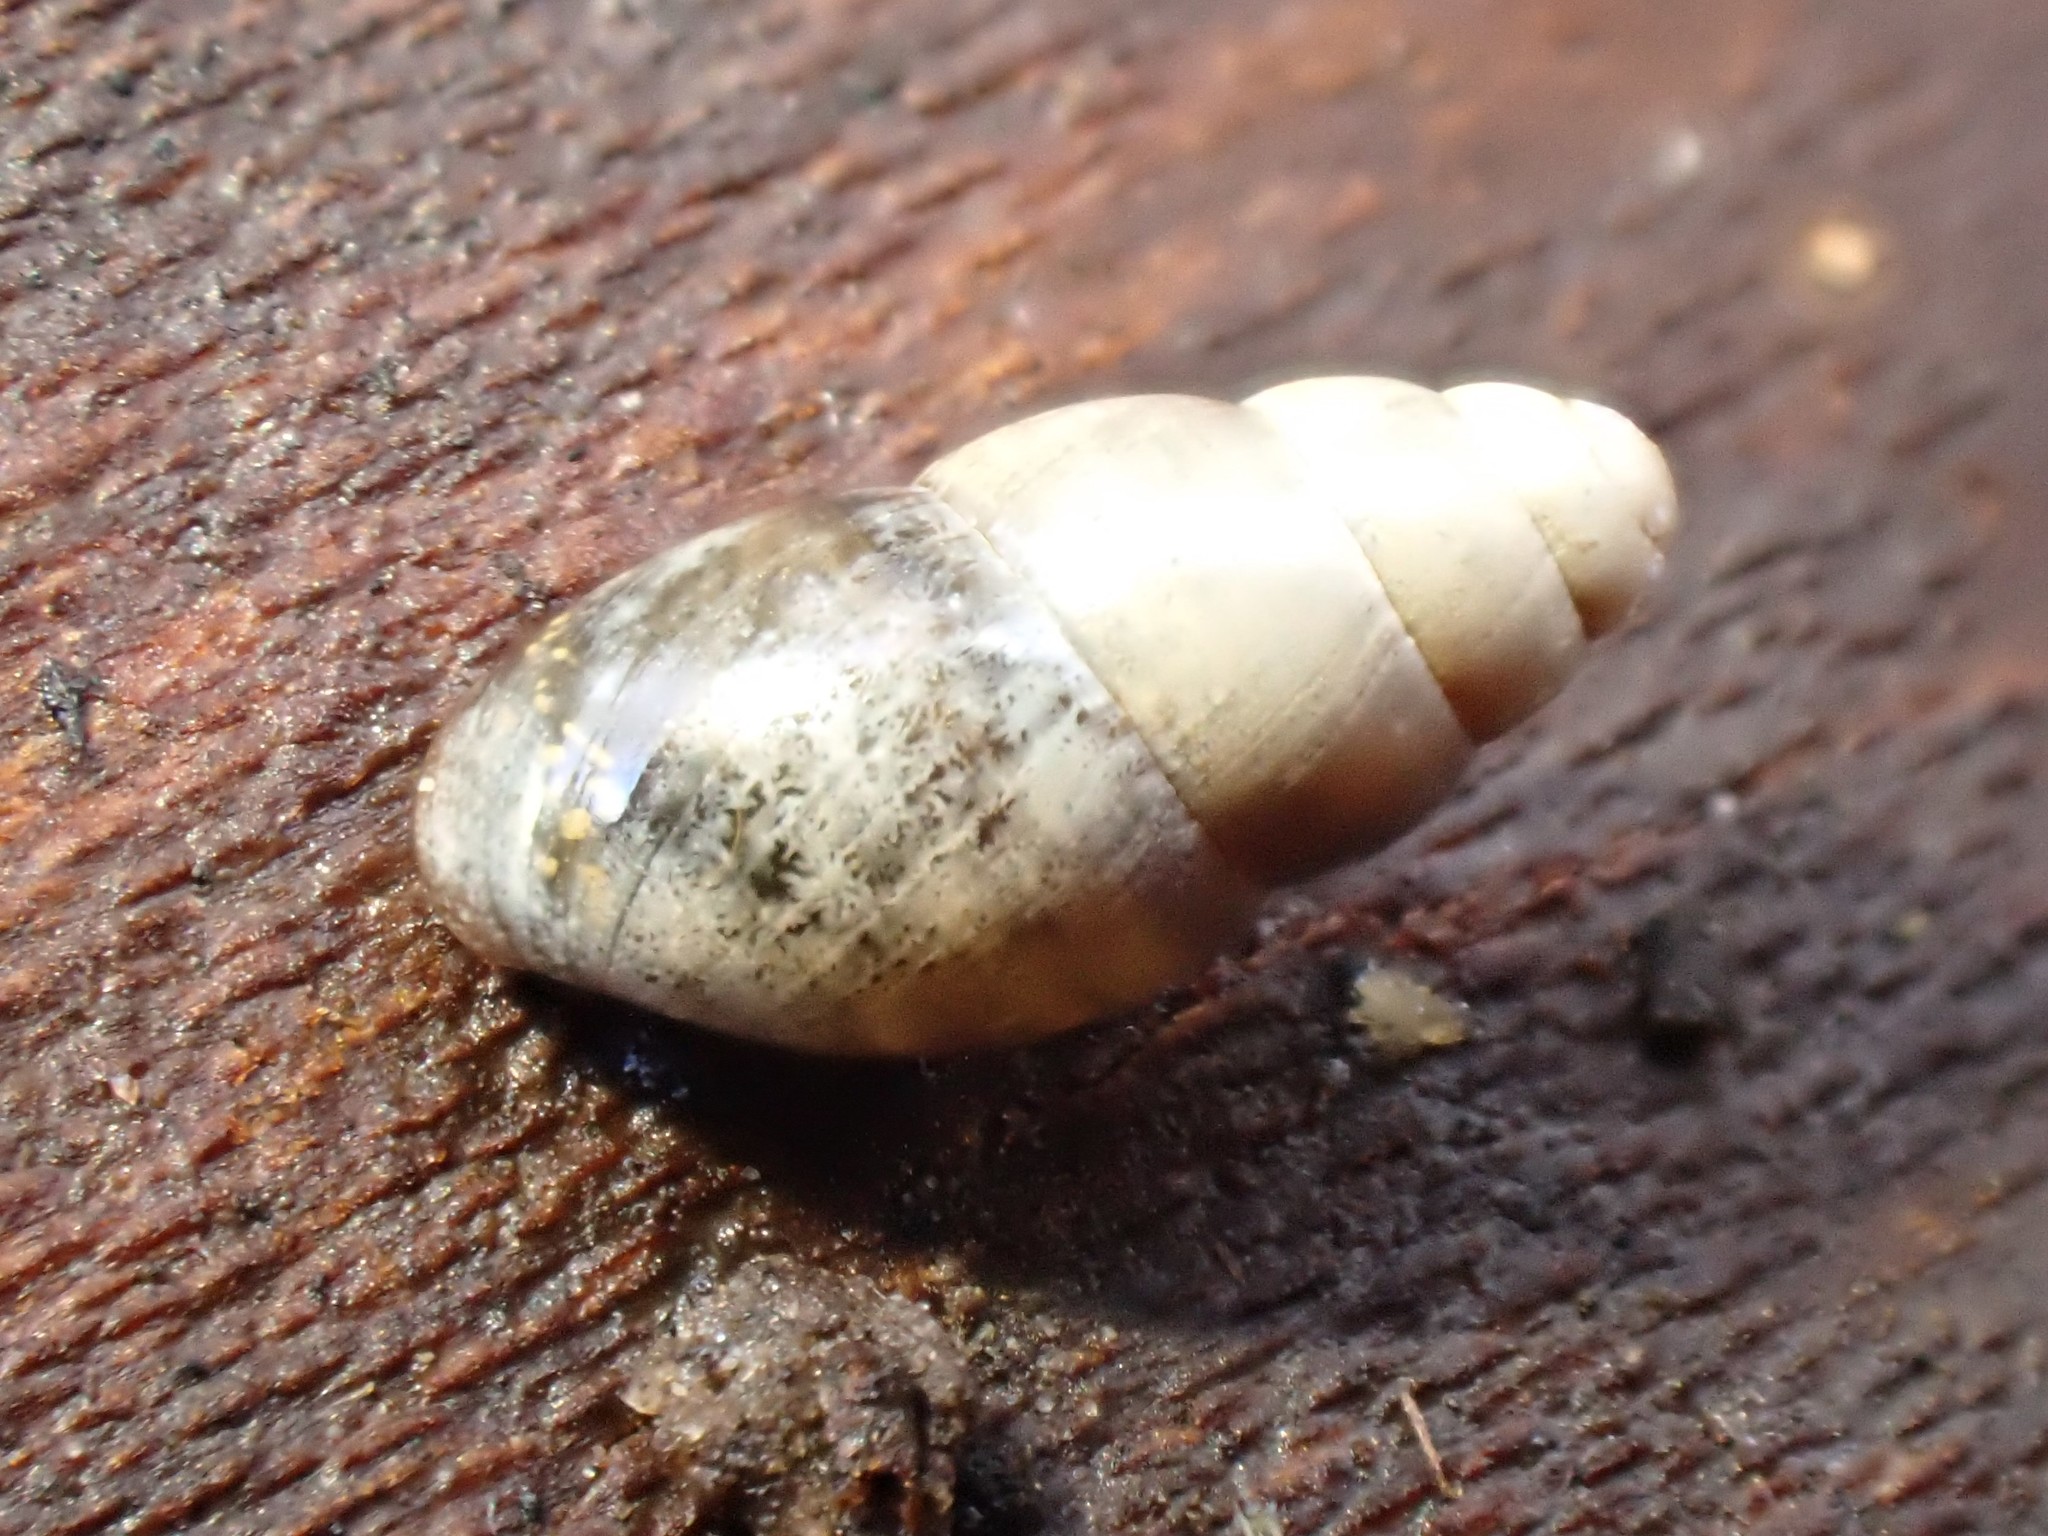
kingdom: Animalia
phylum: Mollusca
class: Gastropoda
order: Stylommatophora
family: Cochlicopidae
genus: Cochlicopa
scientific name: Cochlicopa lubrica
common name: Glossy pillar snail
